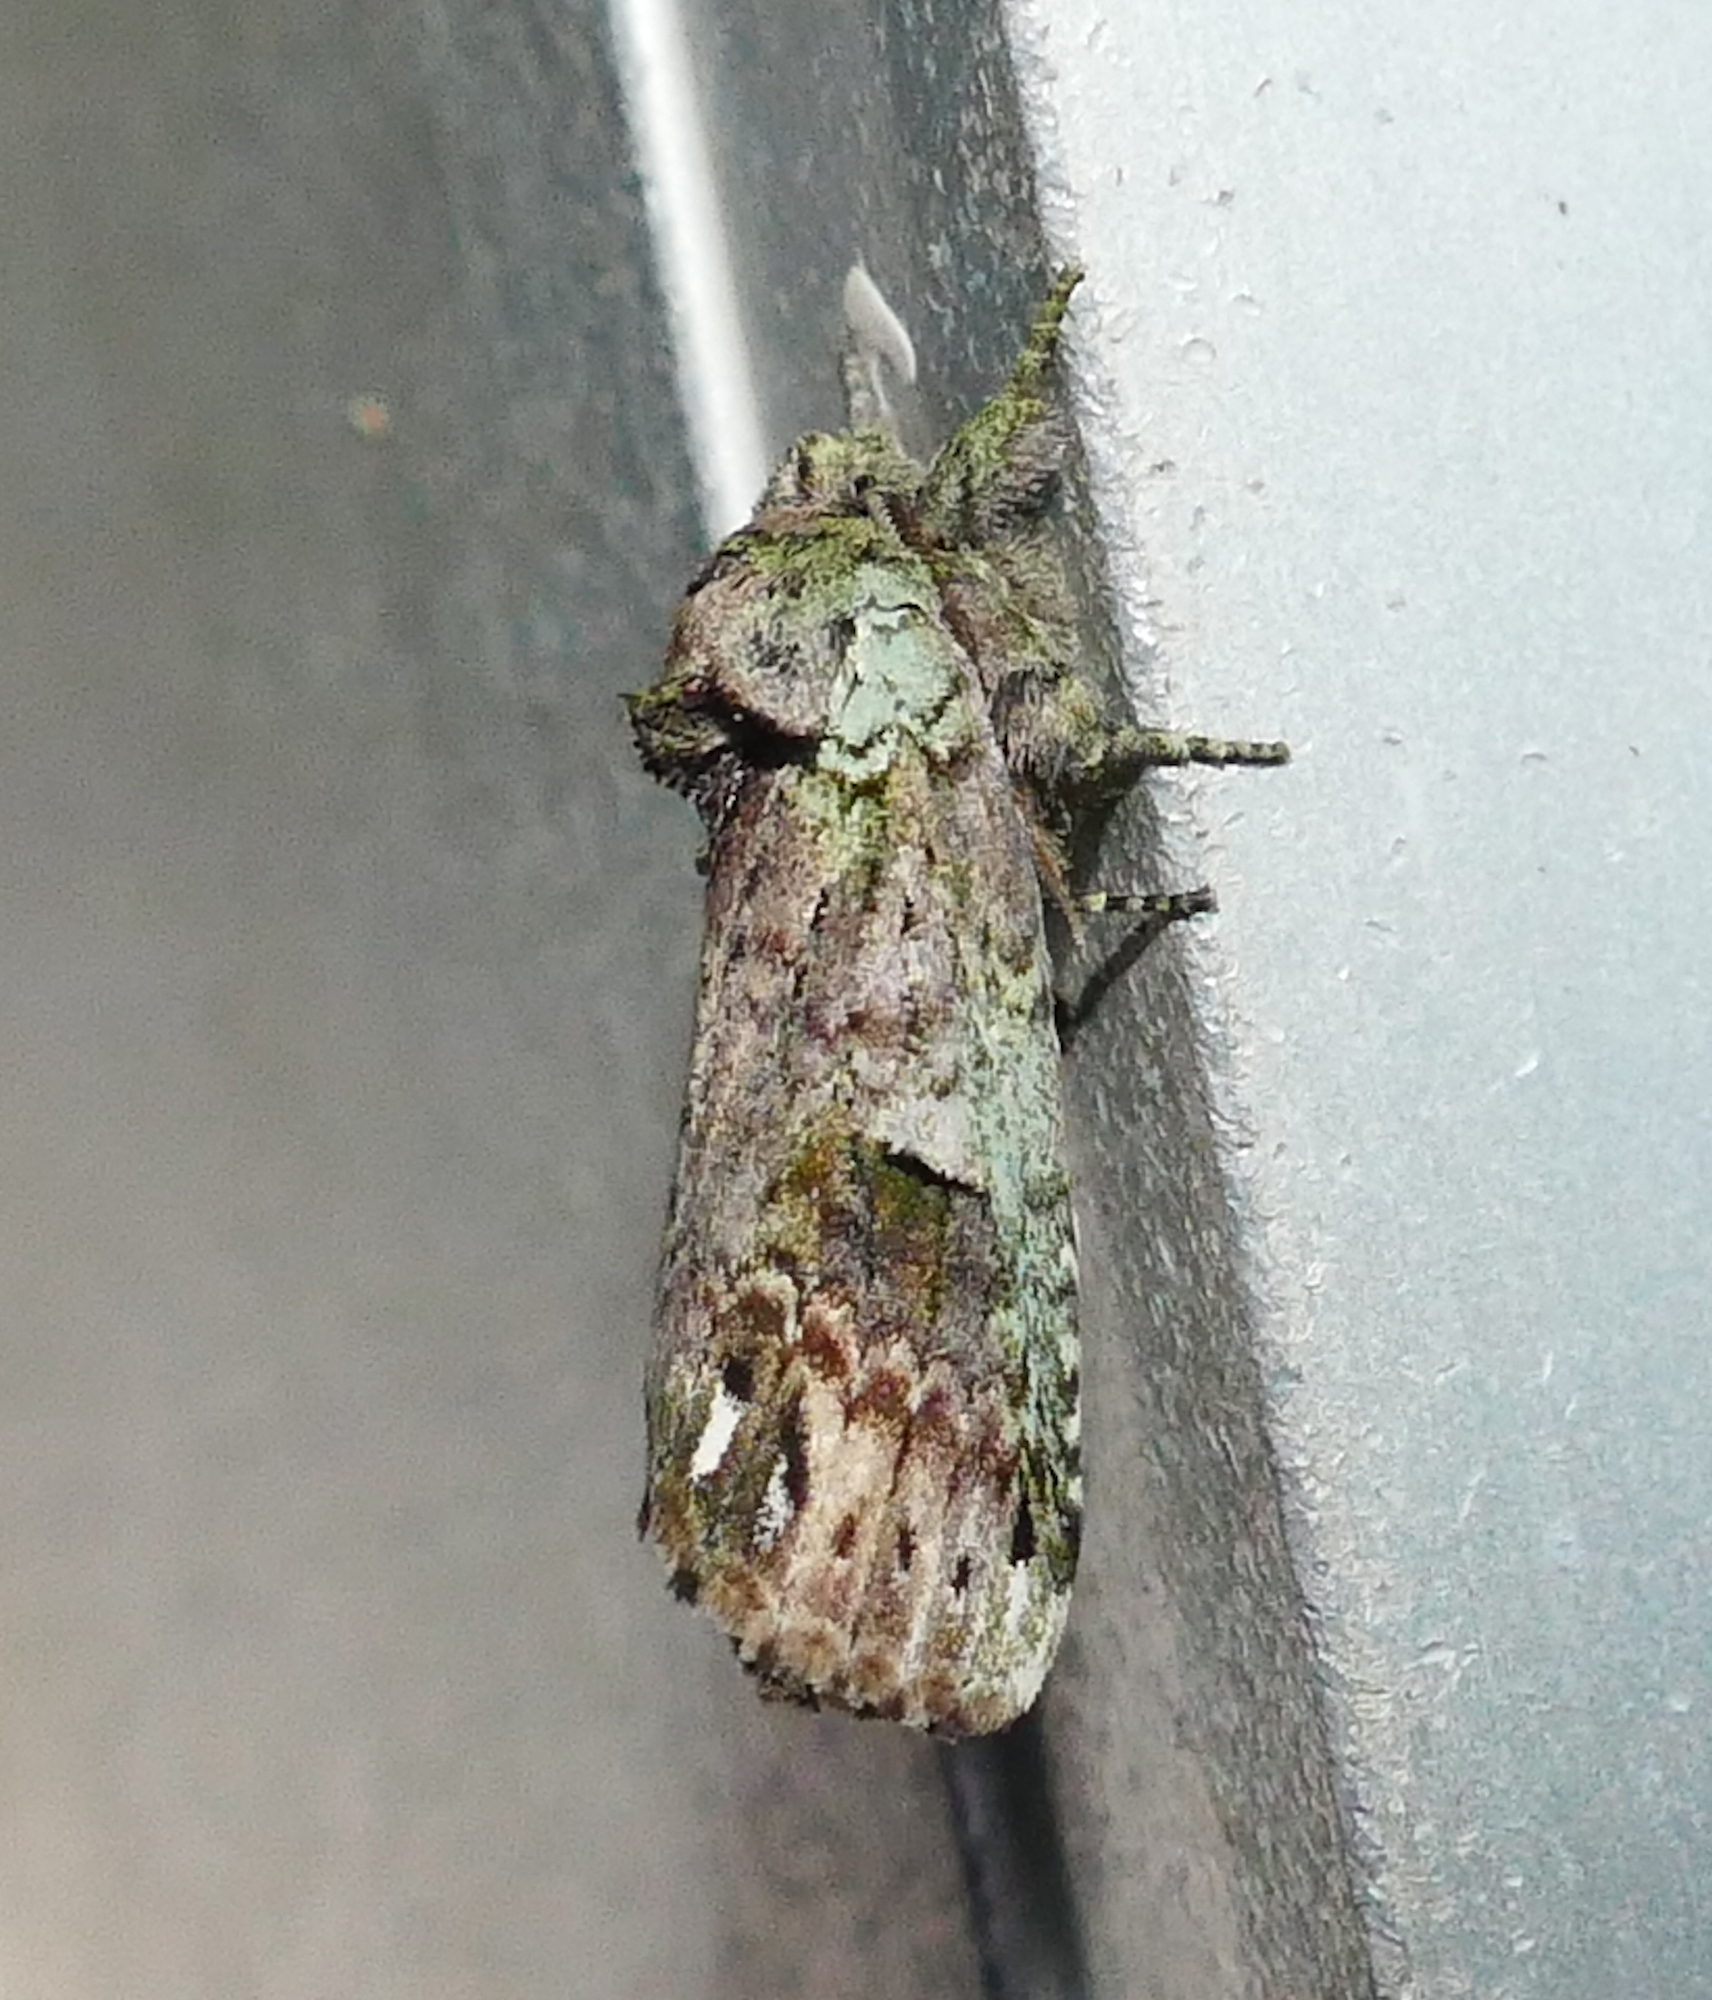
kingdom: Animalia
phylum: Arthropoda
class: Insecta
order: Lepidoptera
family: Notodontidae
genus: Schizura
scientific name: Schizura
